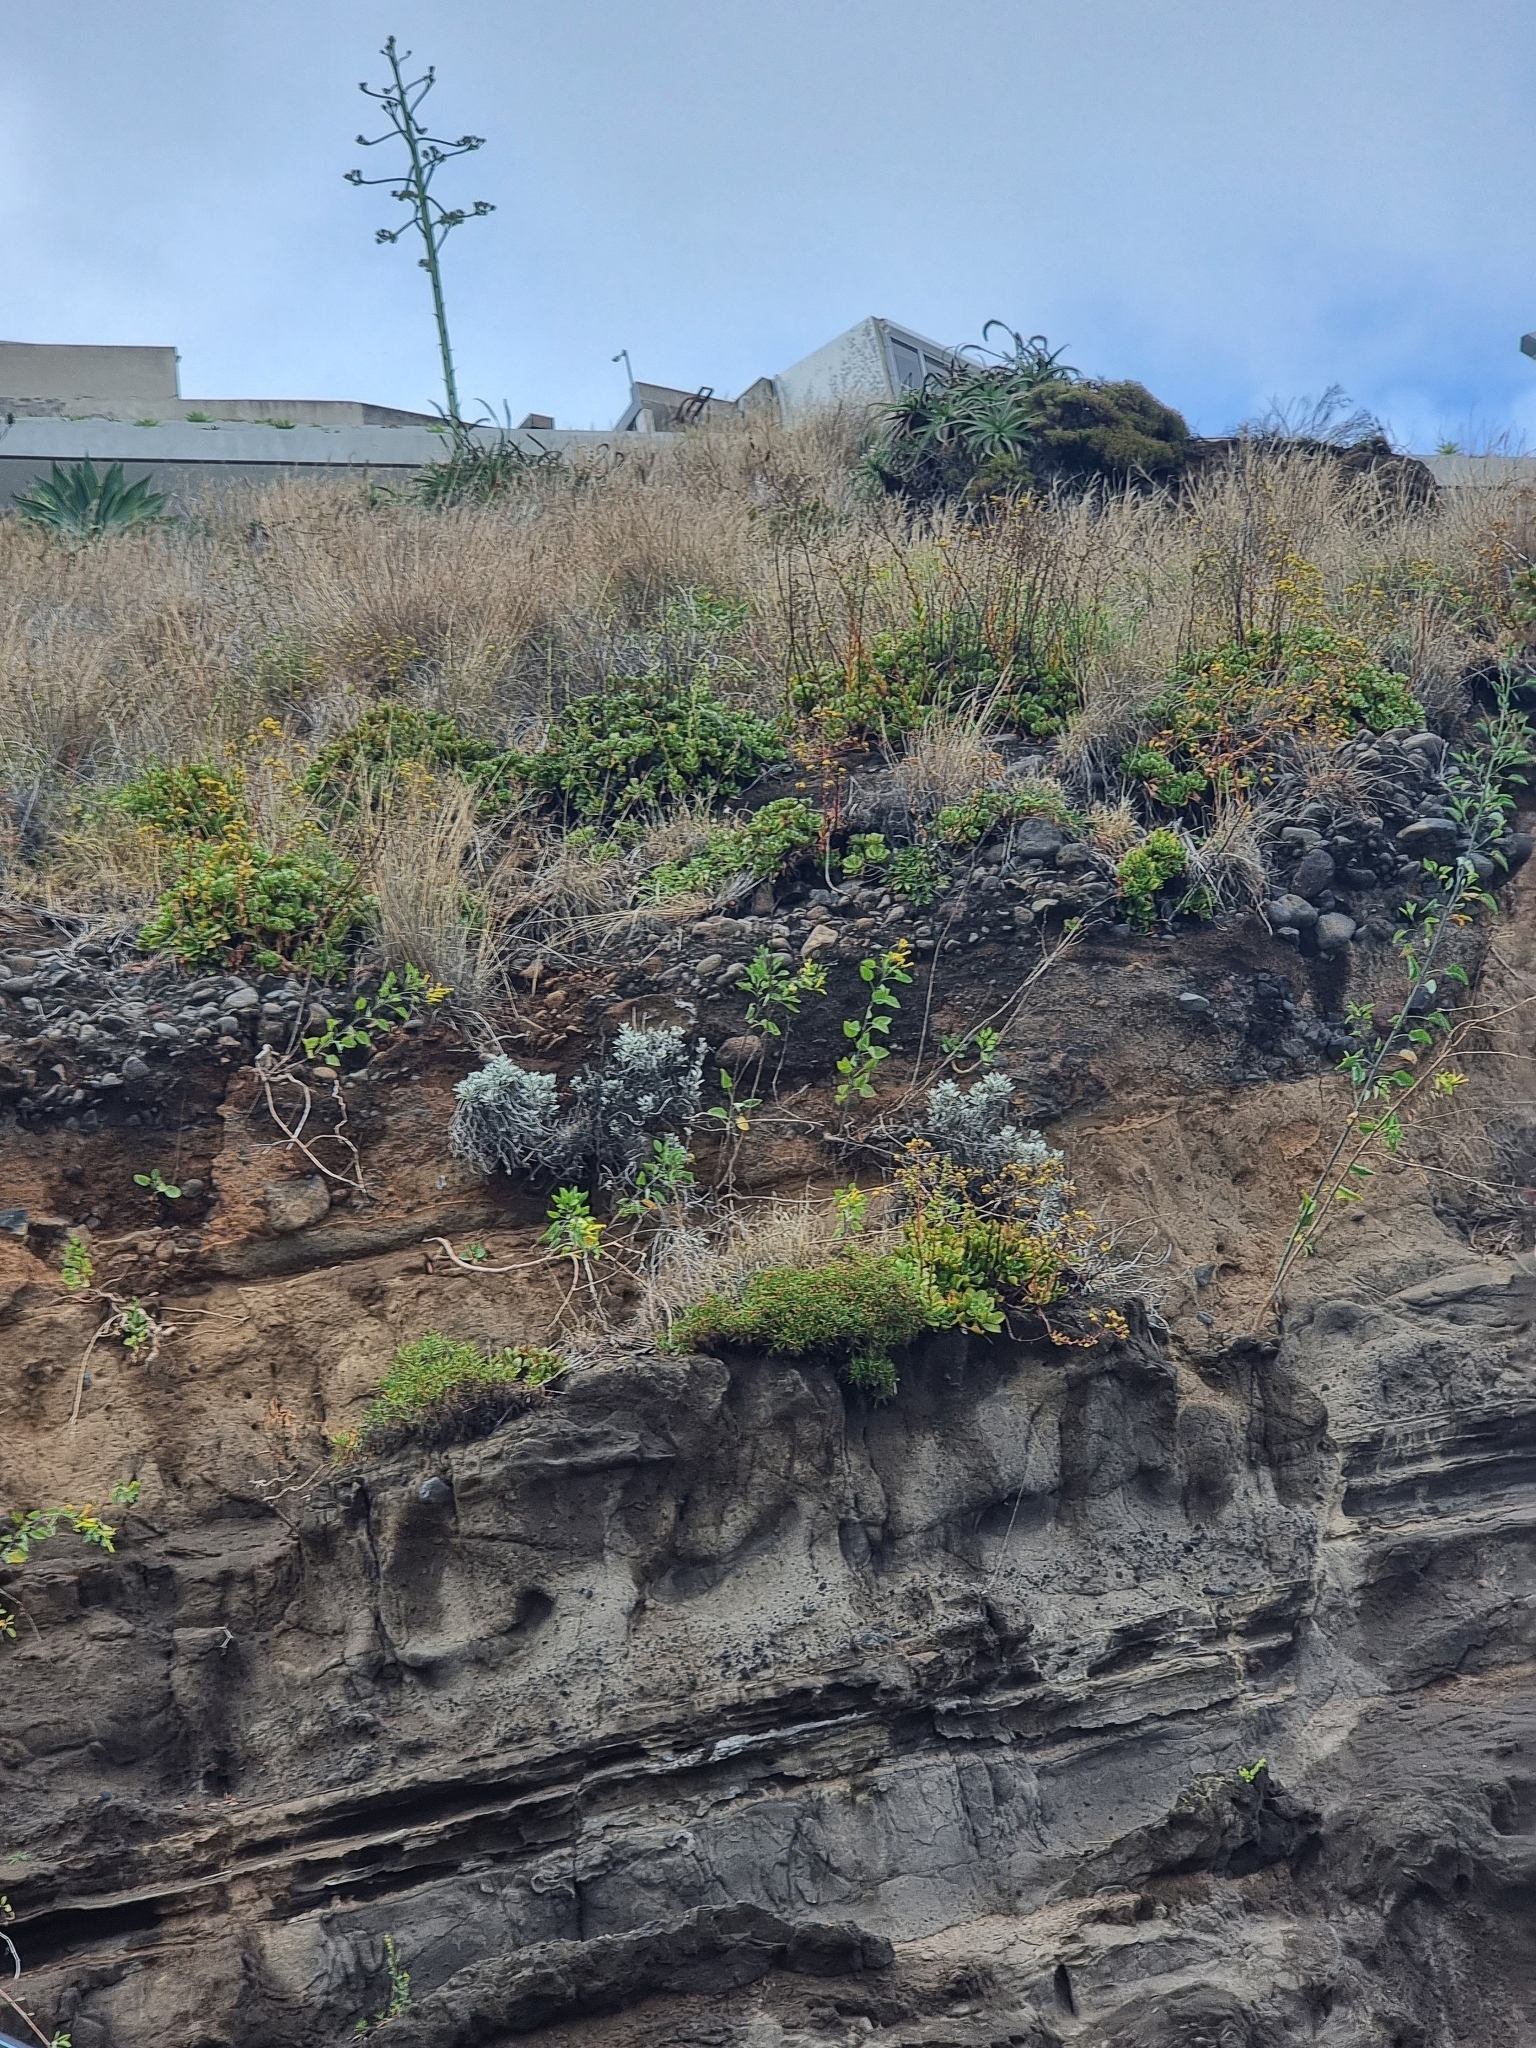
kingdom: Plantae
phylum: Tracheophyta
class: Magnoliopsida
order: Asterales
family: Asteraceae
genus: Helichrysum
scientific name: Helichrysum monizii
